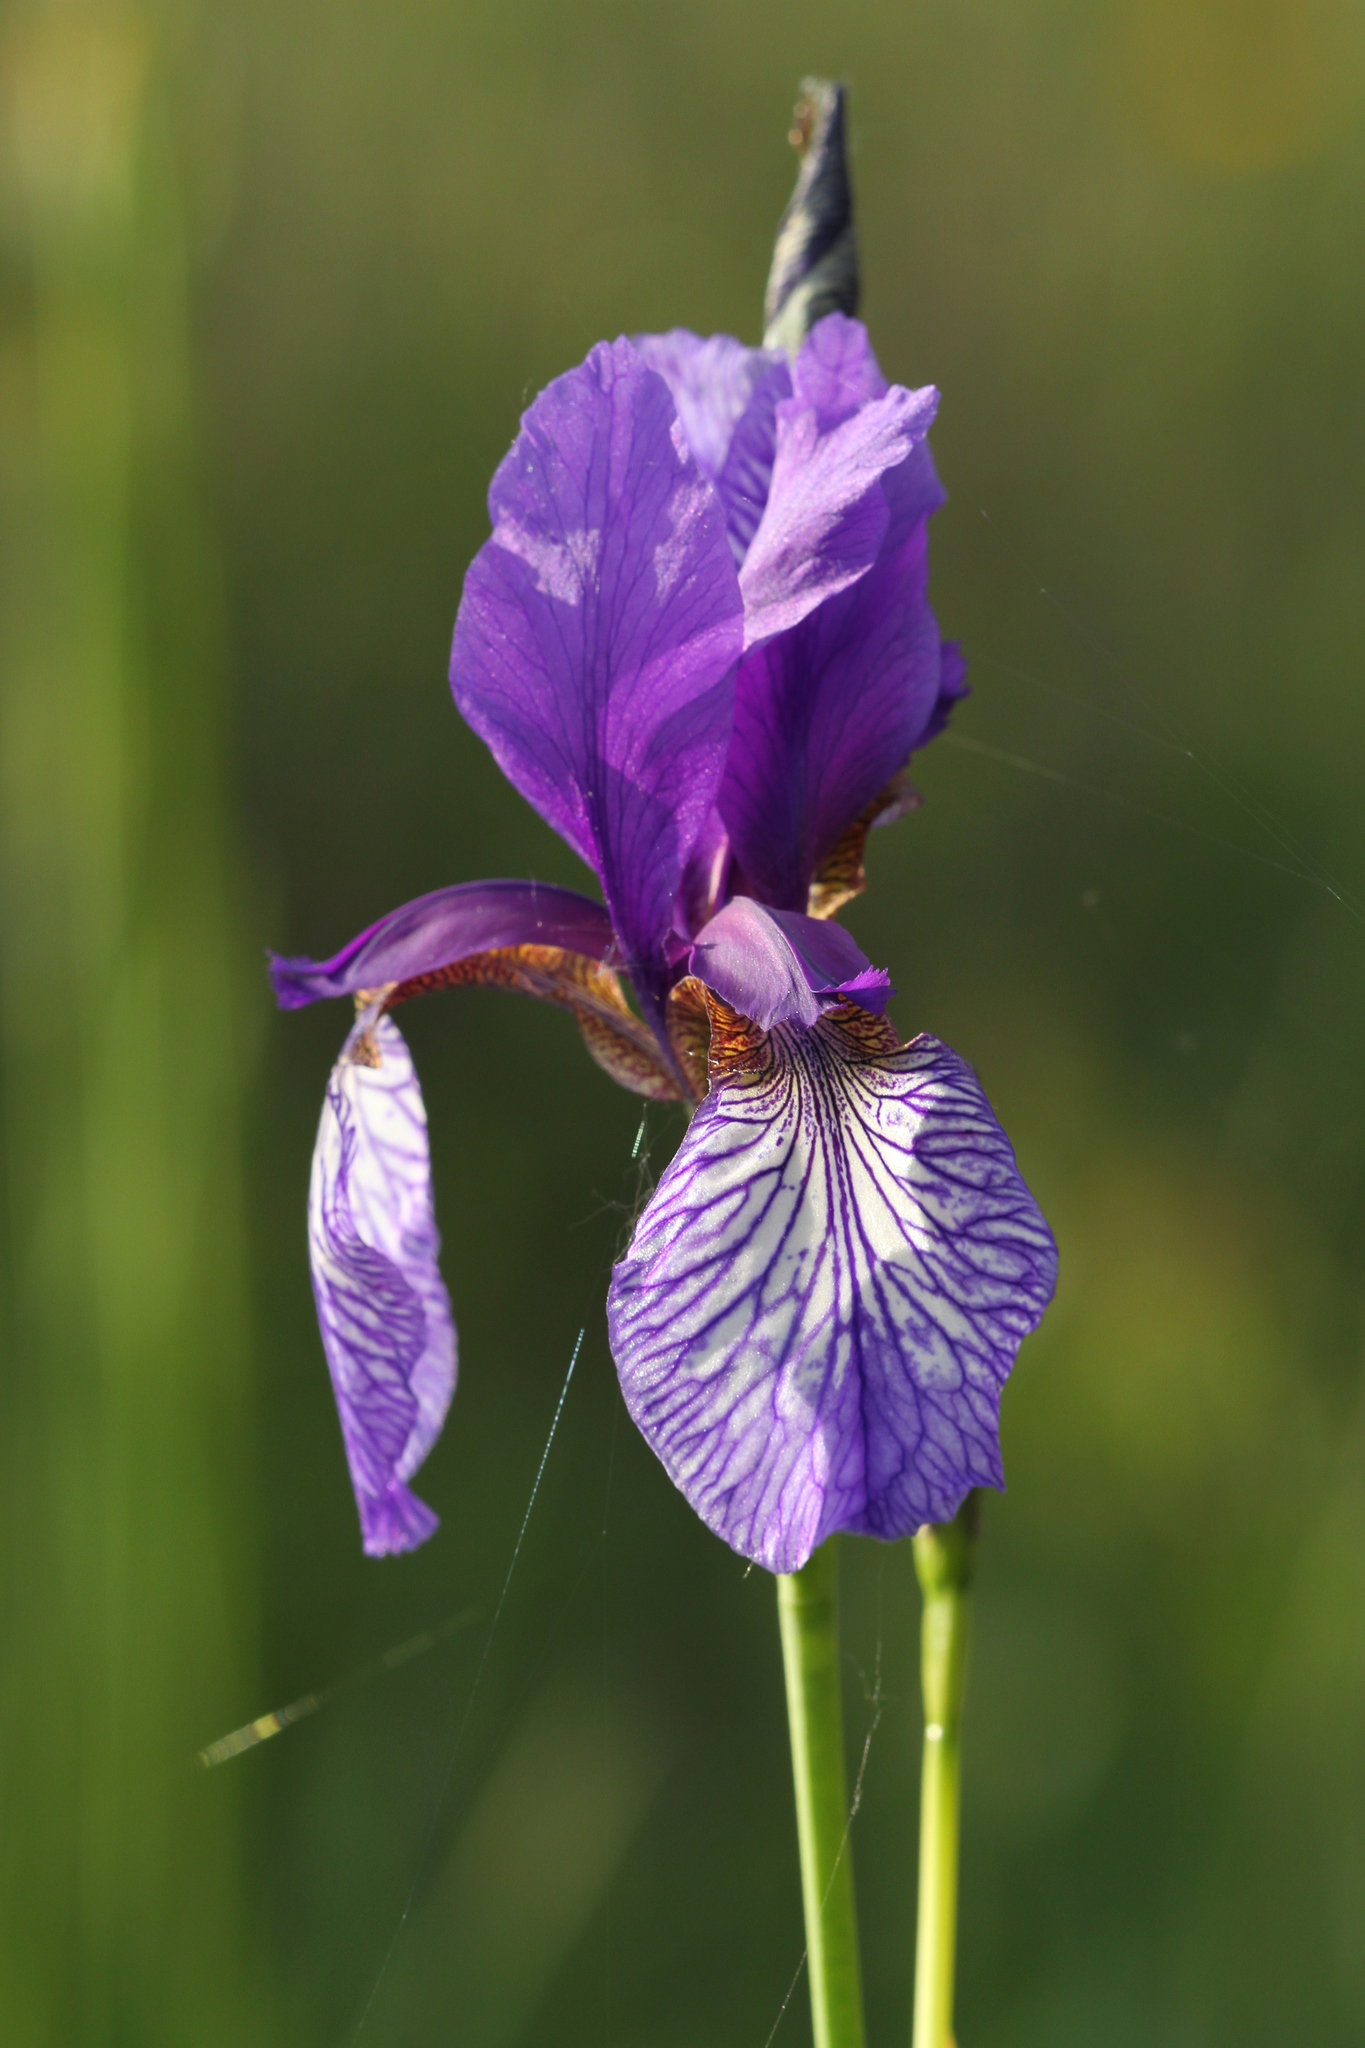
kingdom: Plantae
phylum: Tracheophyta
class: Liliopsida
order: Asparagales
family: Iridaceae
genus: Iris
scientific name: Iris sibirica
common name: Siberian iris
